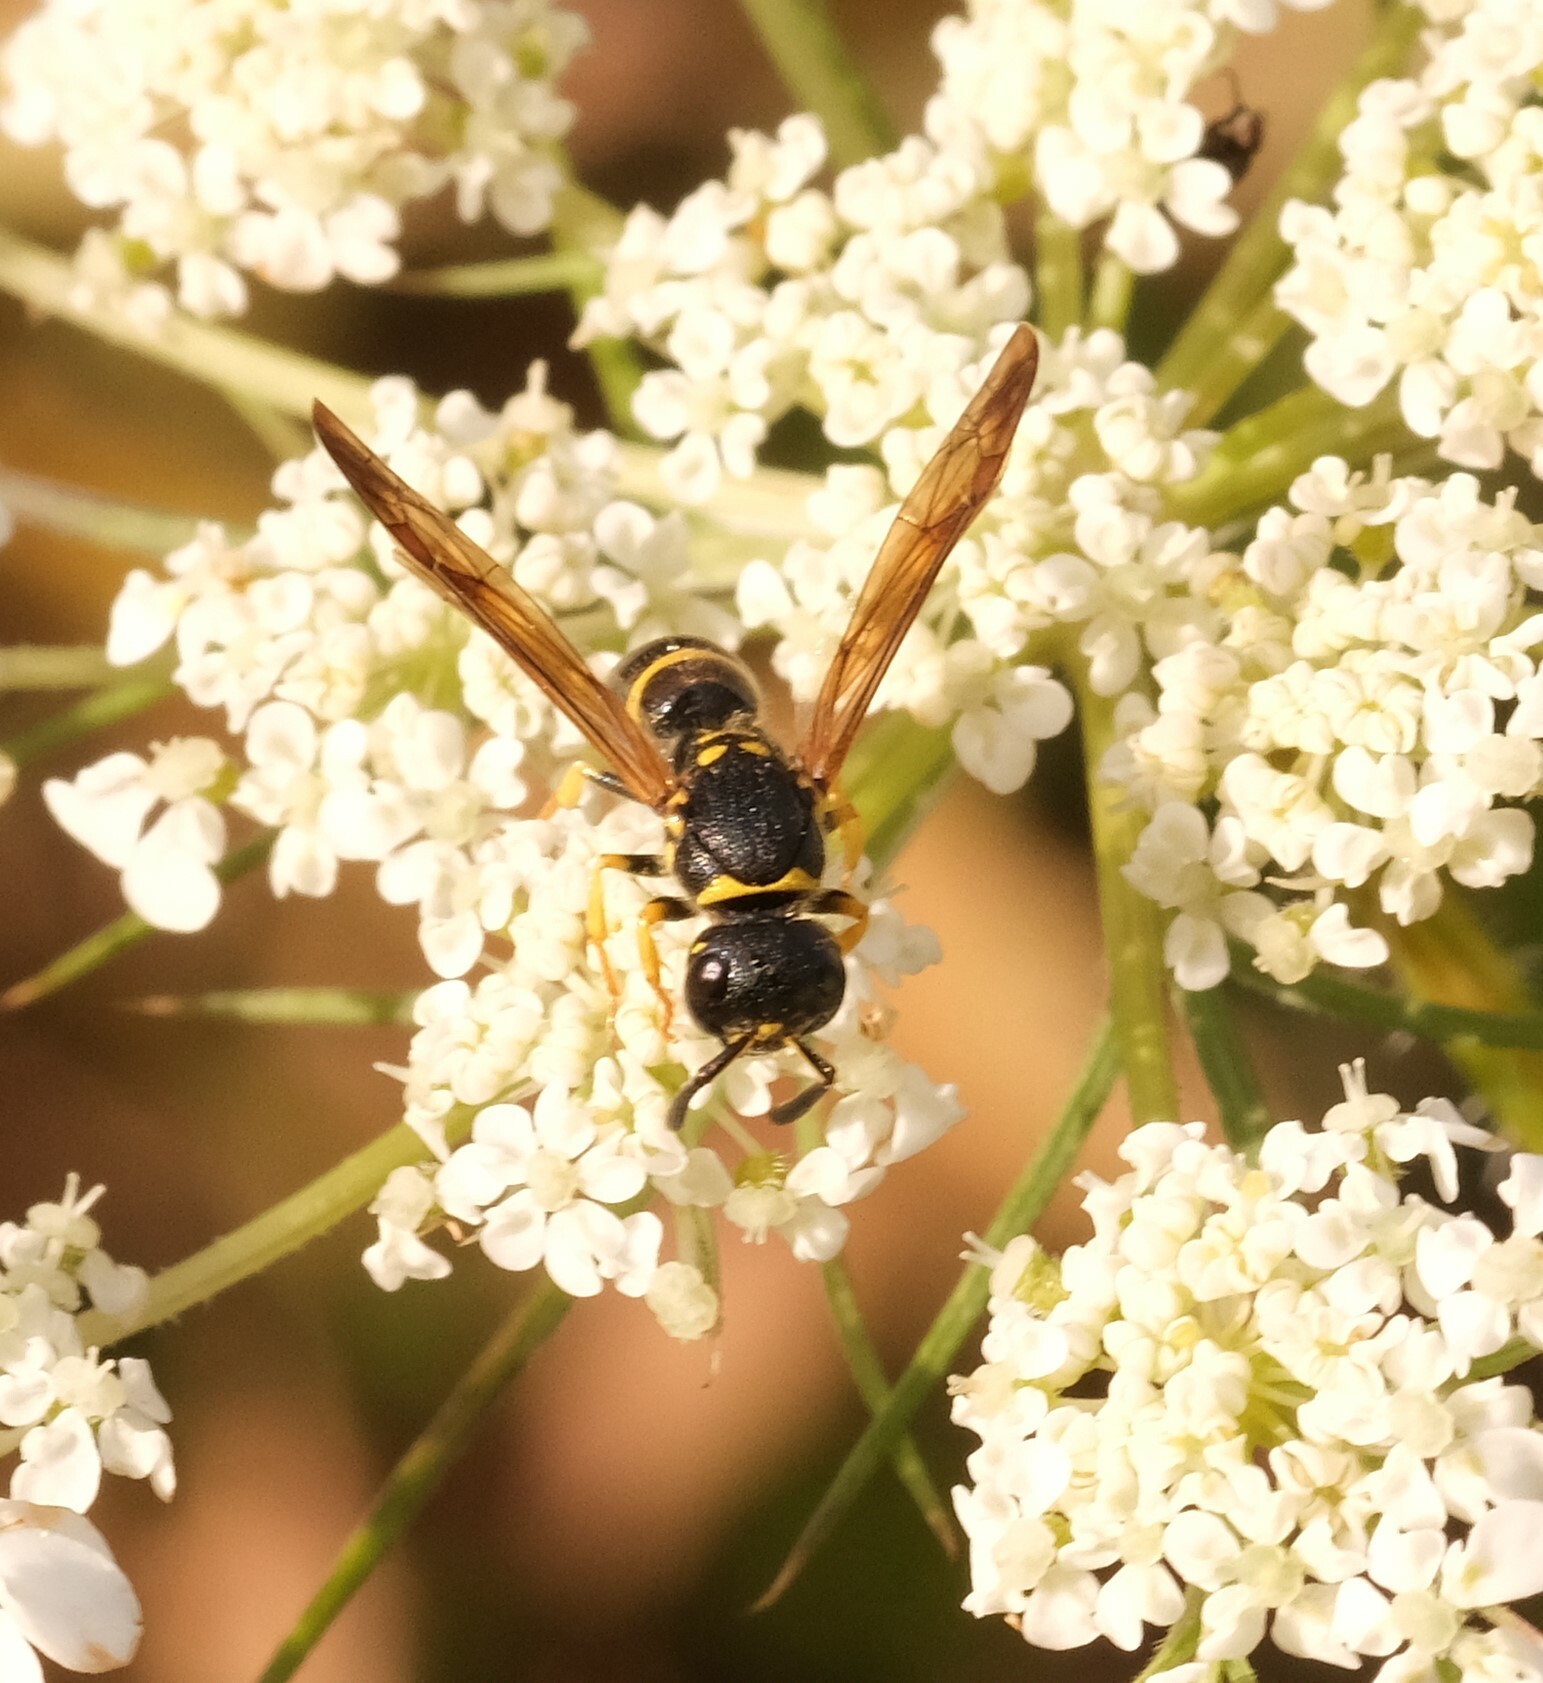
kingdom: Animalia
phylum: Arthropoda
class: Insecta
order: Hymenoptera
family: Vespidae
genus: Ancistrocerus
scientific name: Ancistrocerus adiabatus
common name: Bramble mason wasp
